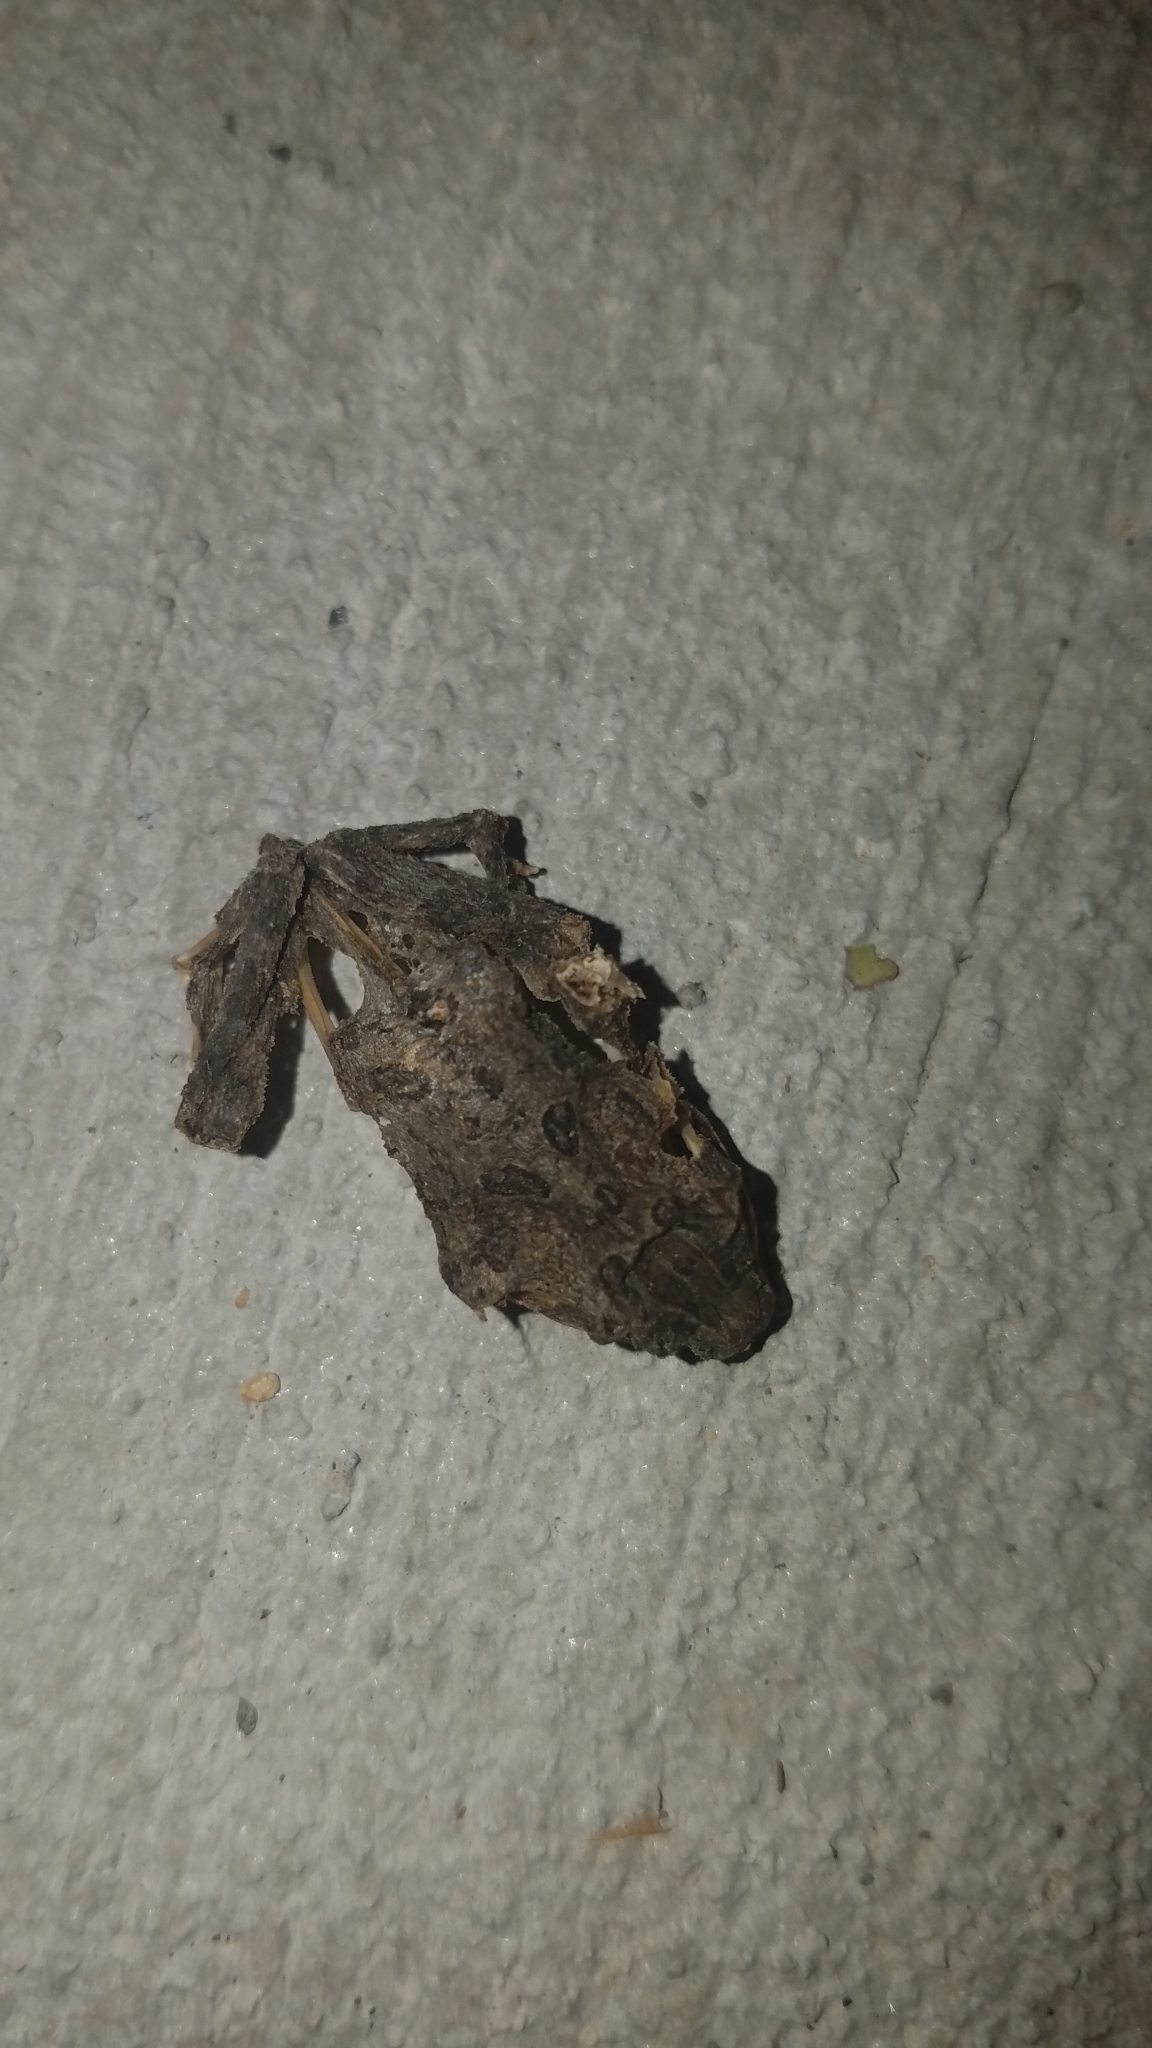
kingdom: Animalia
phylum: Chordata
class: Amphibia
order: Anura
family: Bufonidae
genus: Anaxyrus
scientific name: Anaxyrus americanus
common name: American toad
